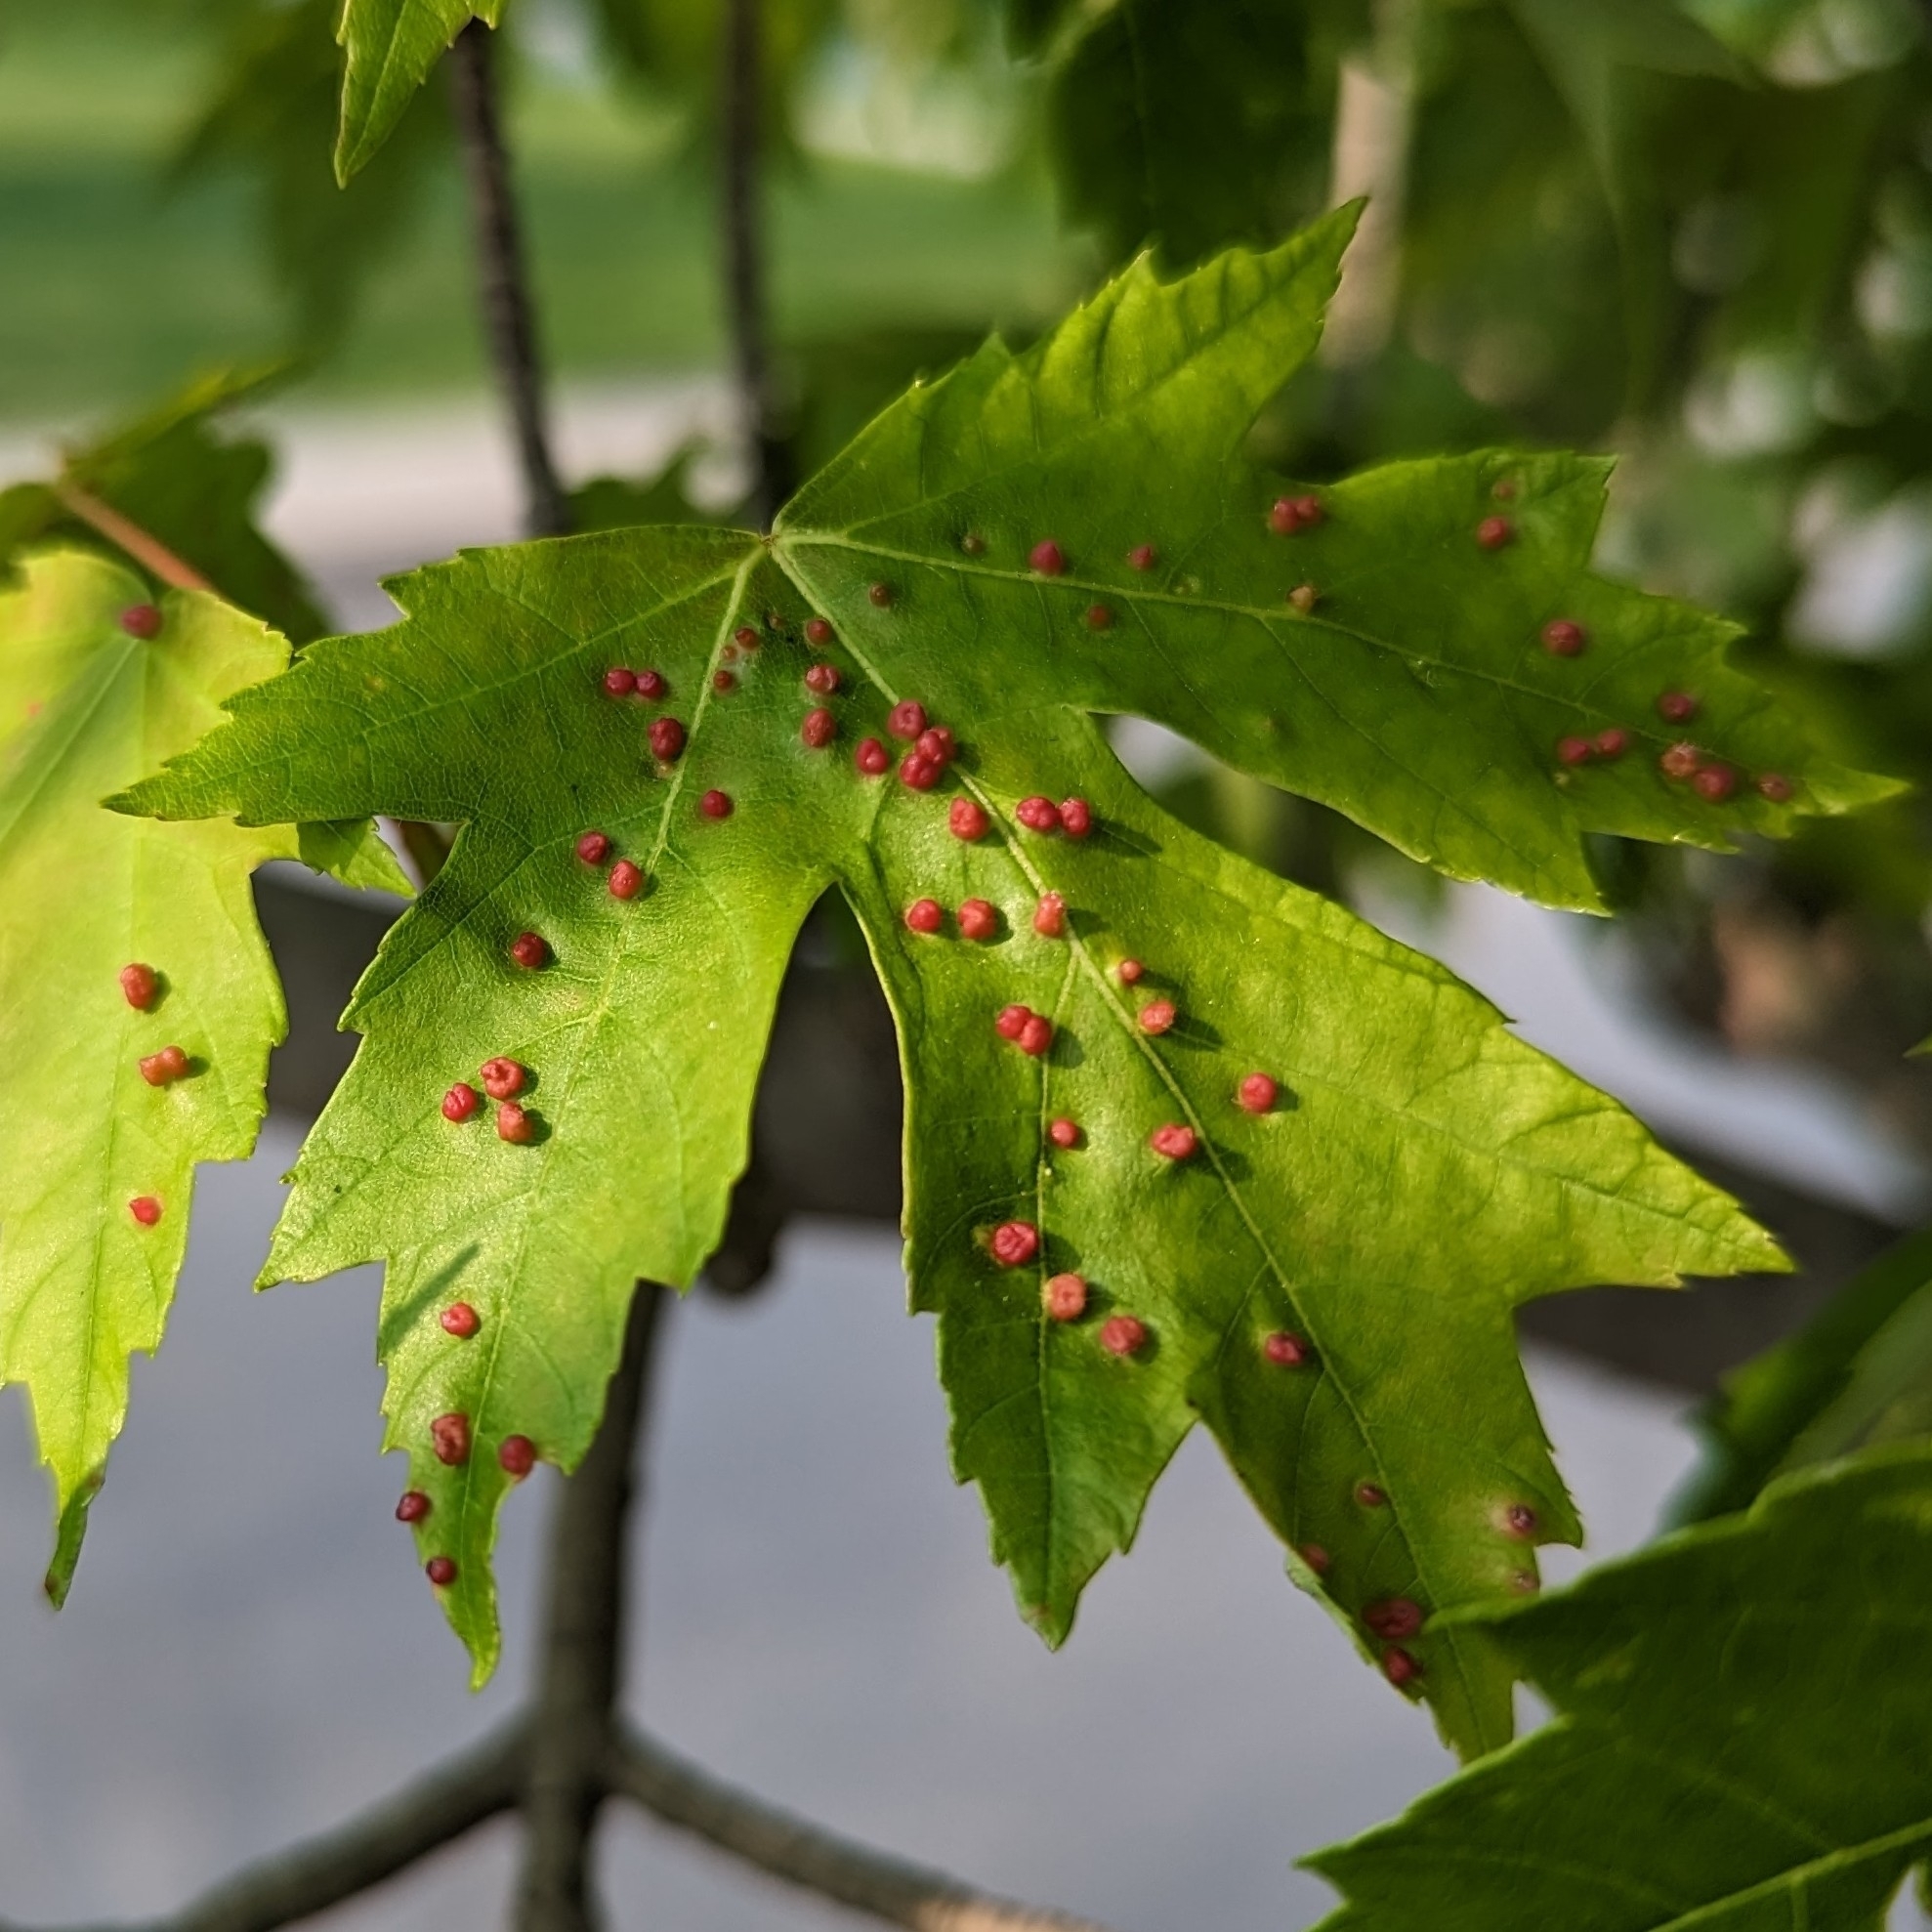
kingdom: Animalia
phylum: Arthropoda
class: Arachnida
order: Trombidiformes
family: Eriophyidae
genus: Vasates
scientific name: Vasates quadripedes
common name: Maple bladder gall mite
